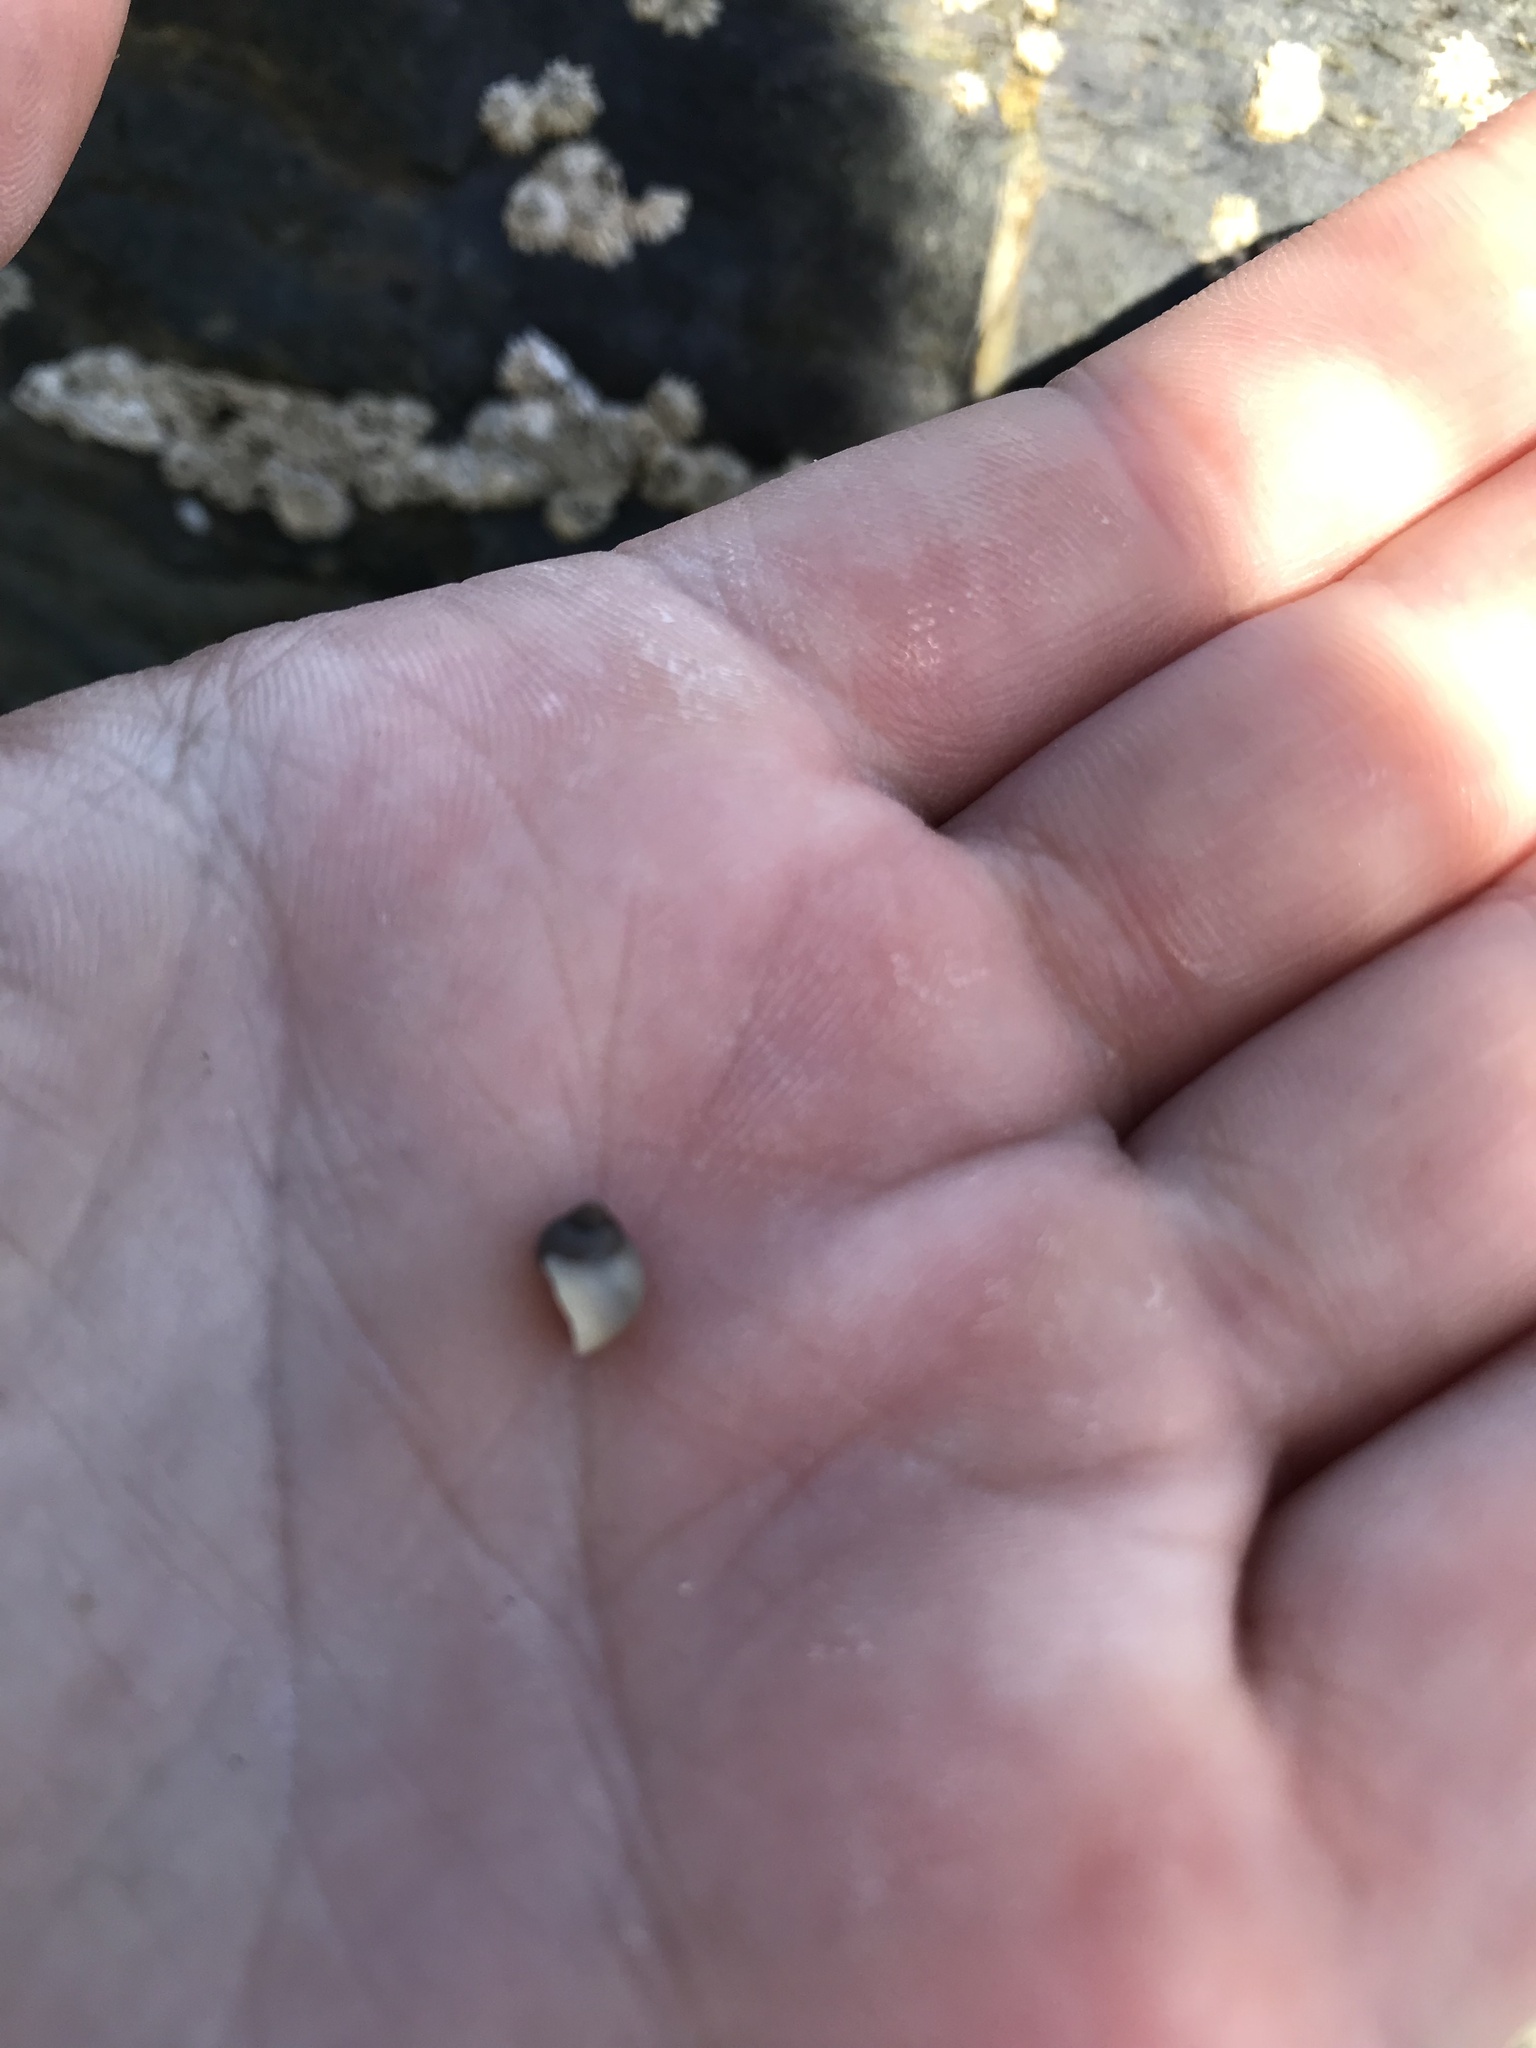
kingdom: Animalia
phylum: Mollusca
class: Gastropoda
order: Littorinimorpha
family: Littorinidae
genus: Littorina
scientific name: Littorina
